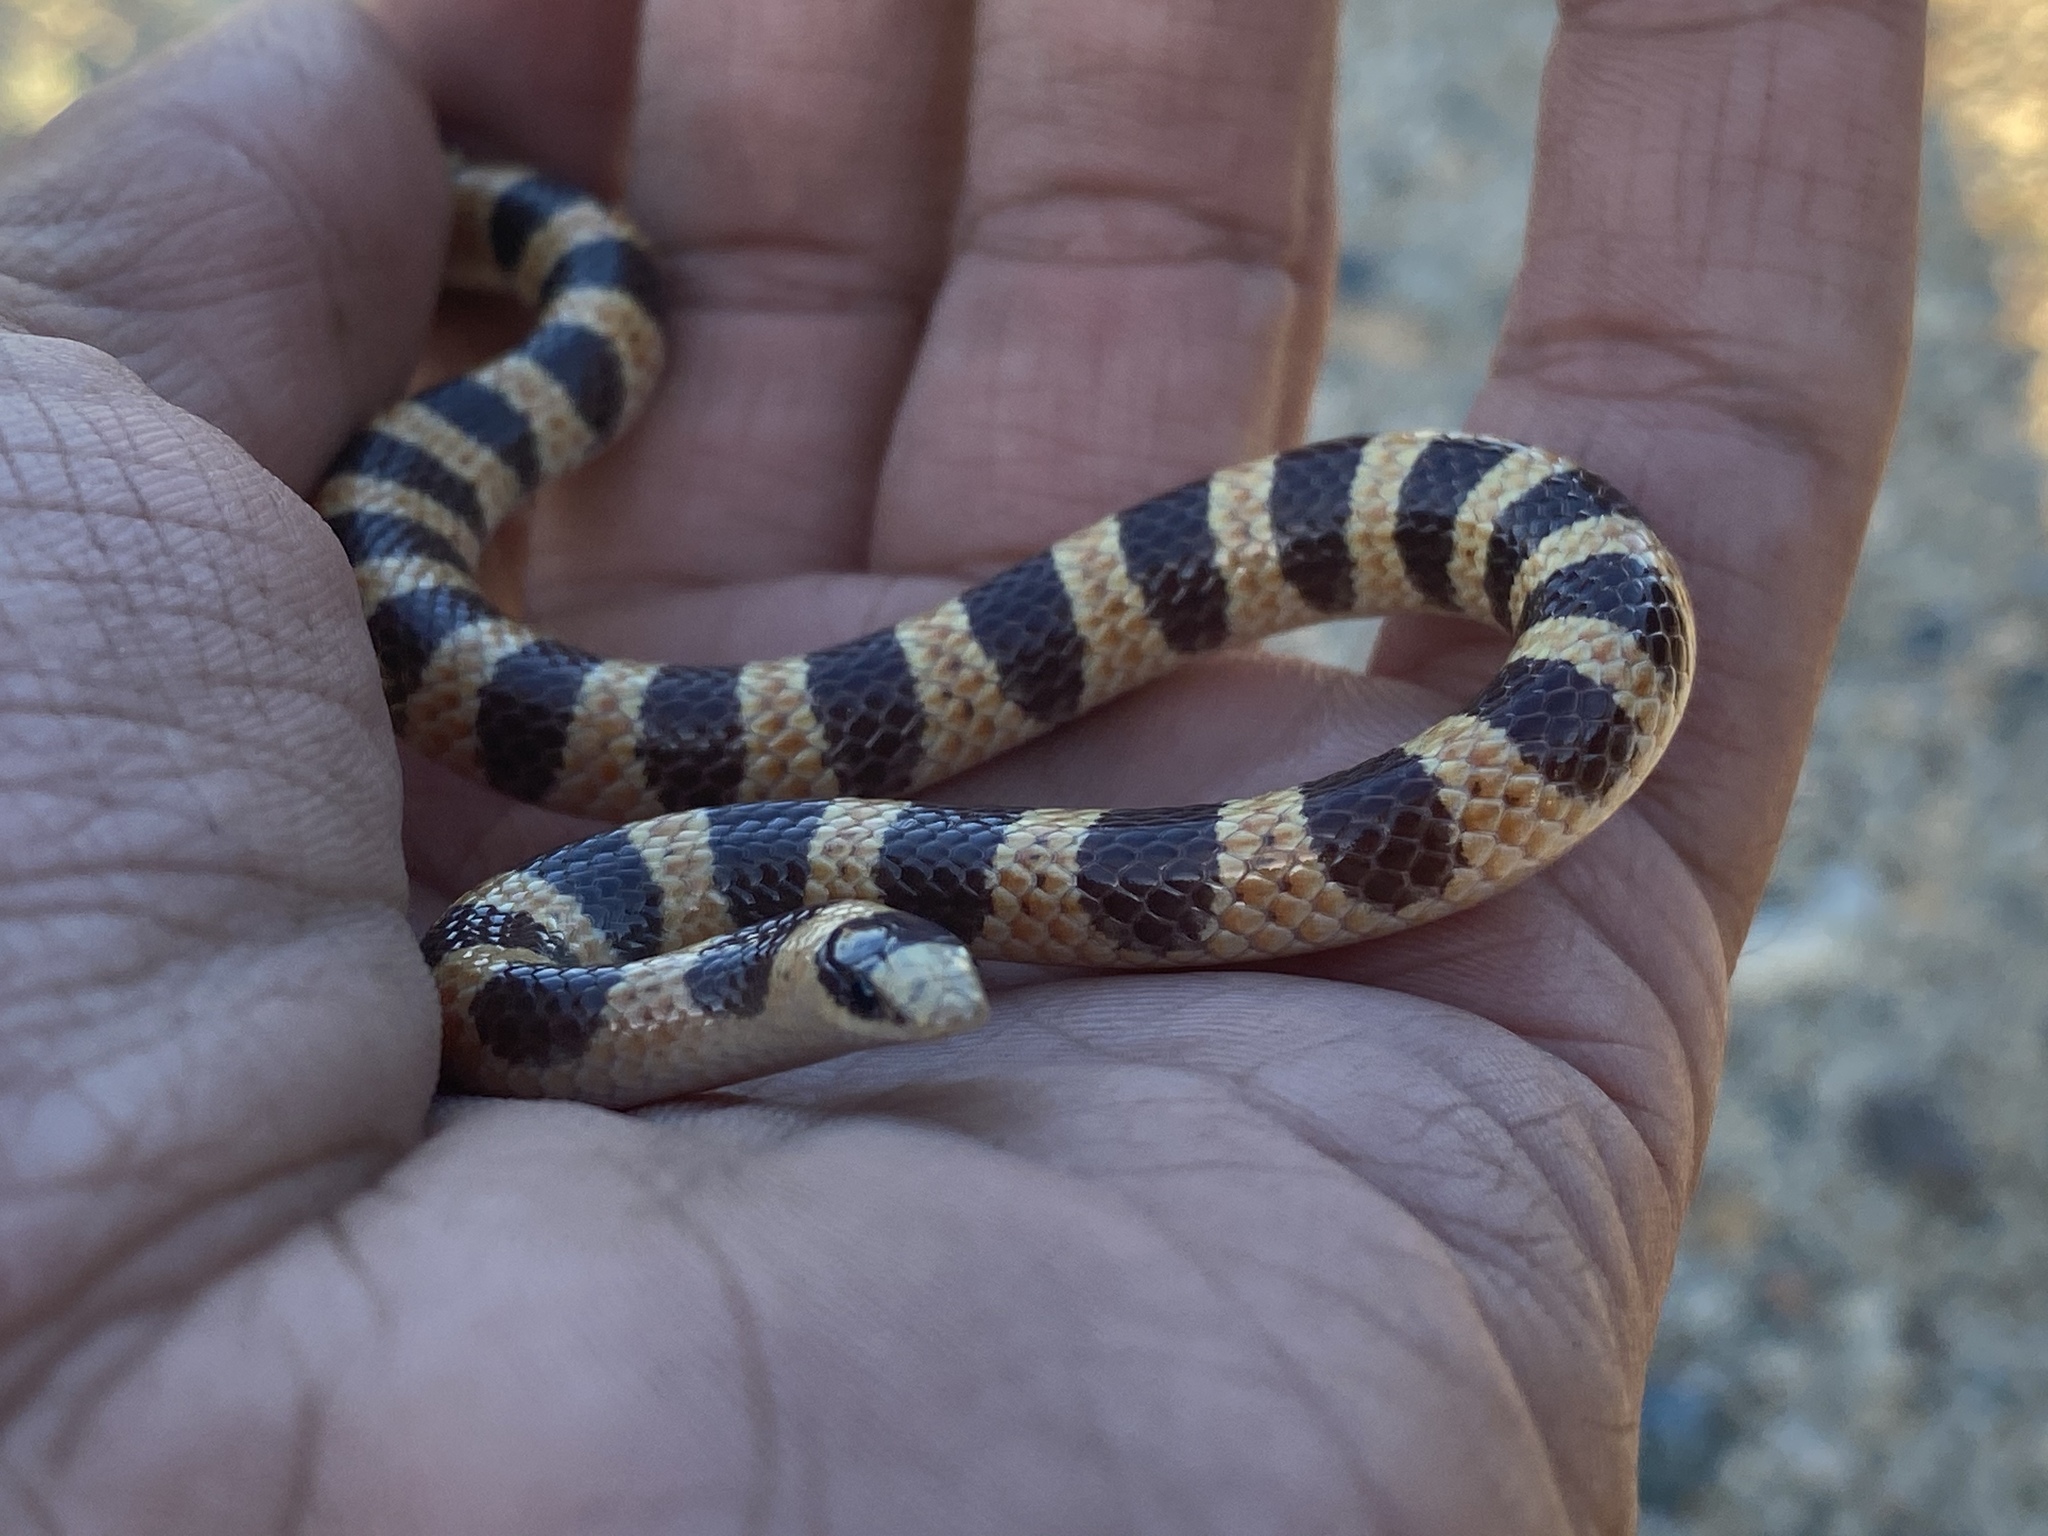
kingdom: Animalia
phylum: Chordata
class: Squamata
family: Colubridae
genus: Sonora
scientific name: Sonora occipitalis
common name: Western shovelnose snake
